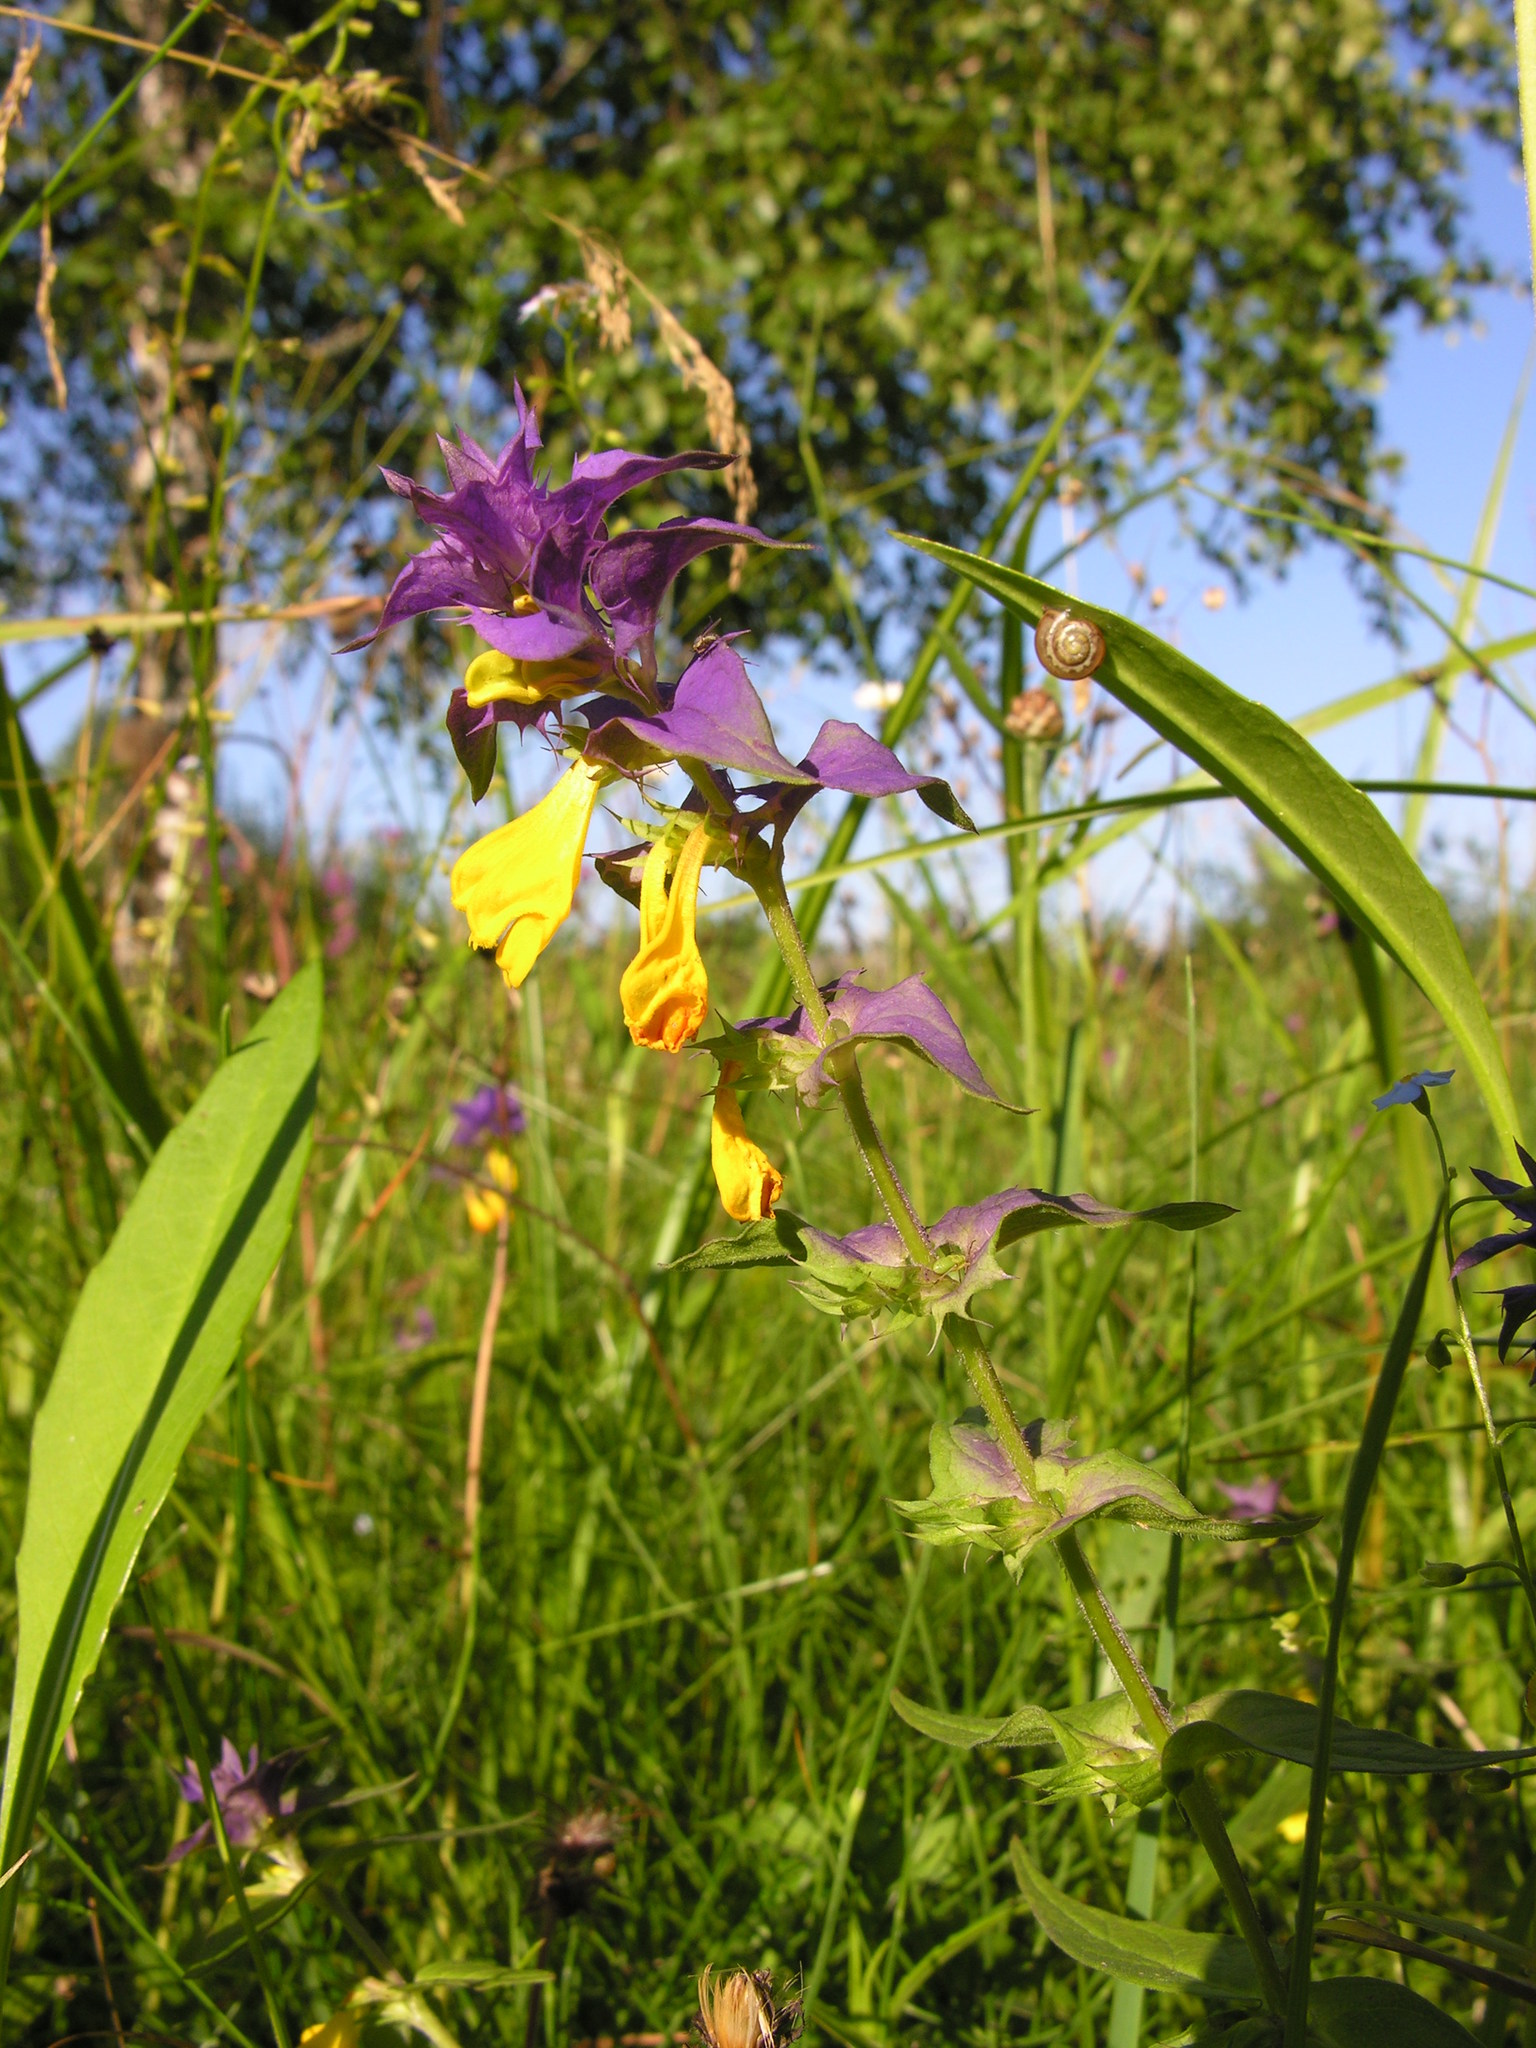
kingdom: Plantae
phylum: Tracheophyta
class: Magnoliopsida
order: Lamiales
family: Orobanchaceae
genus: Melampyrum
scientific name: Melampyrum nemorosum
